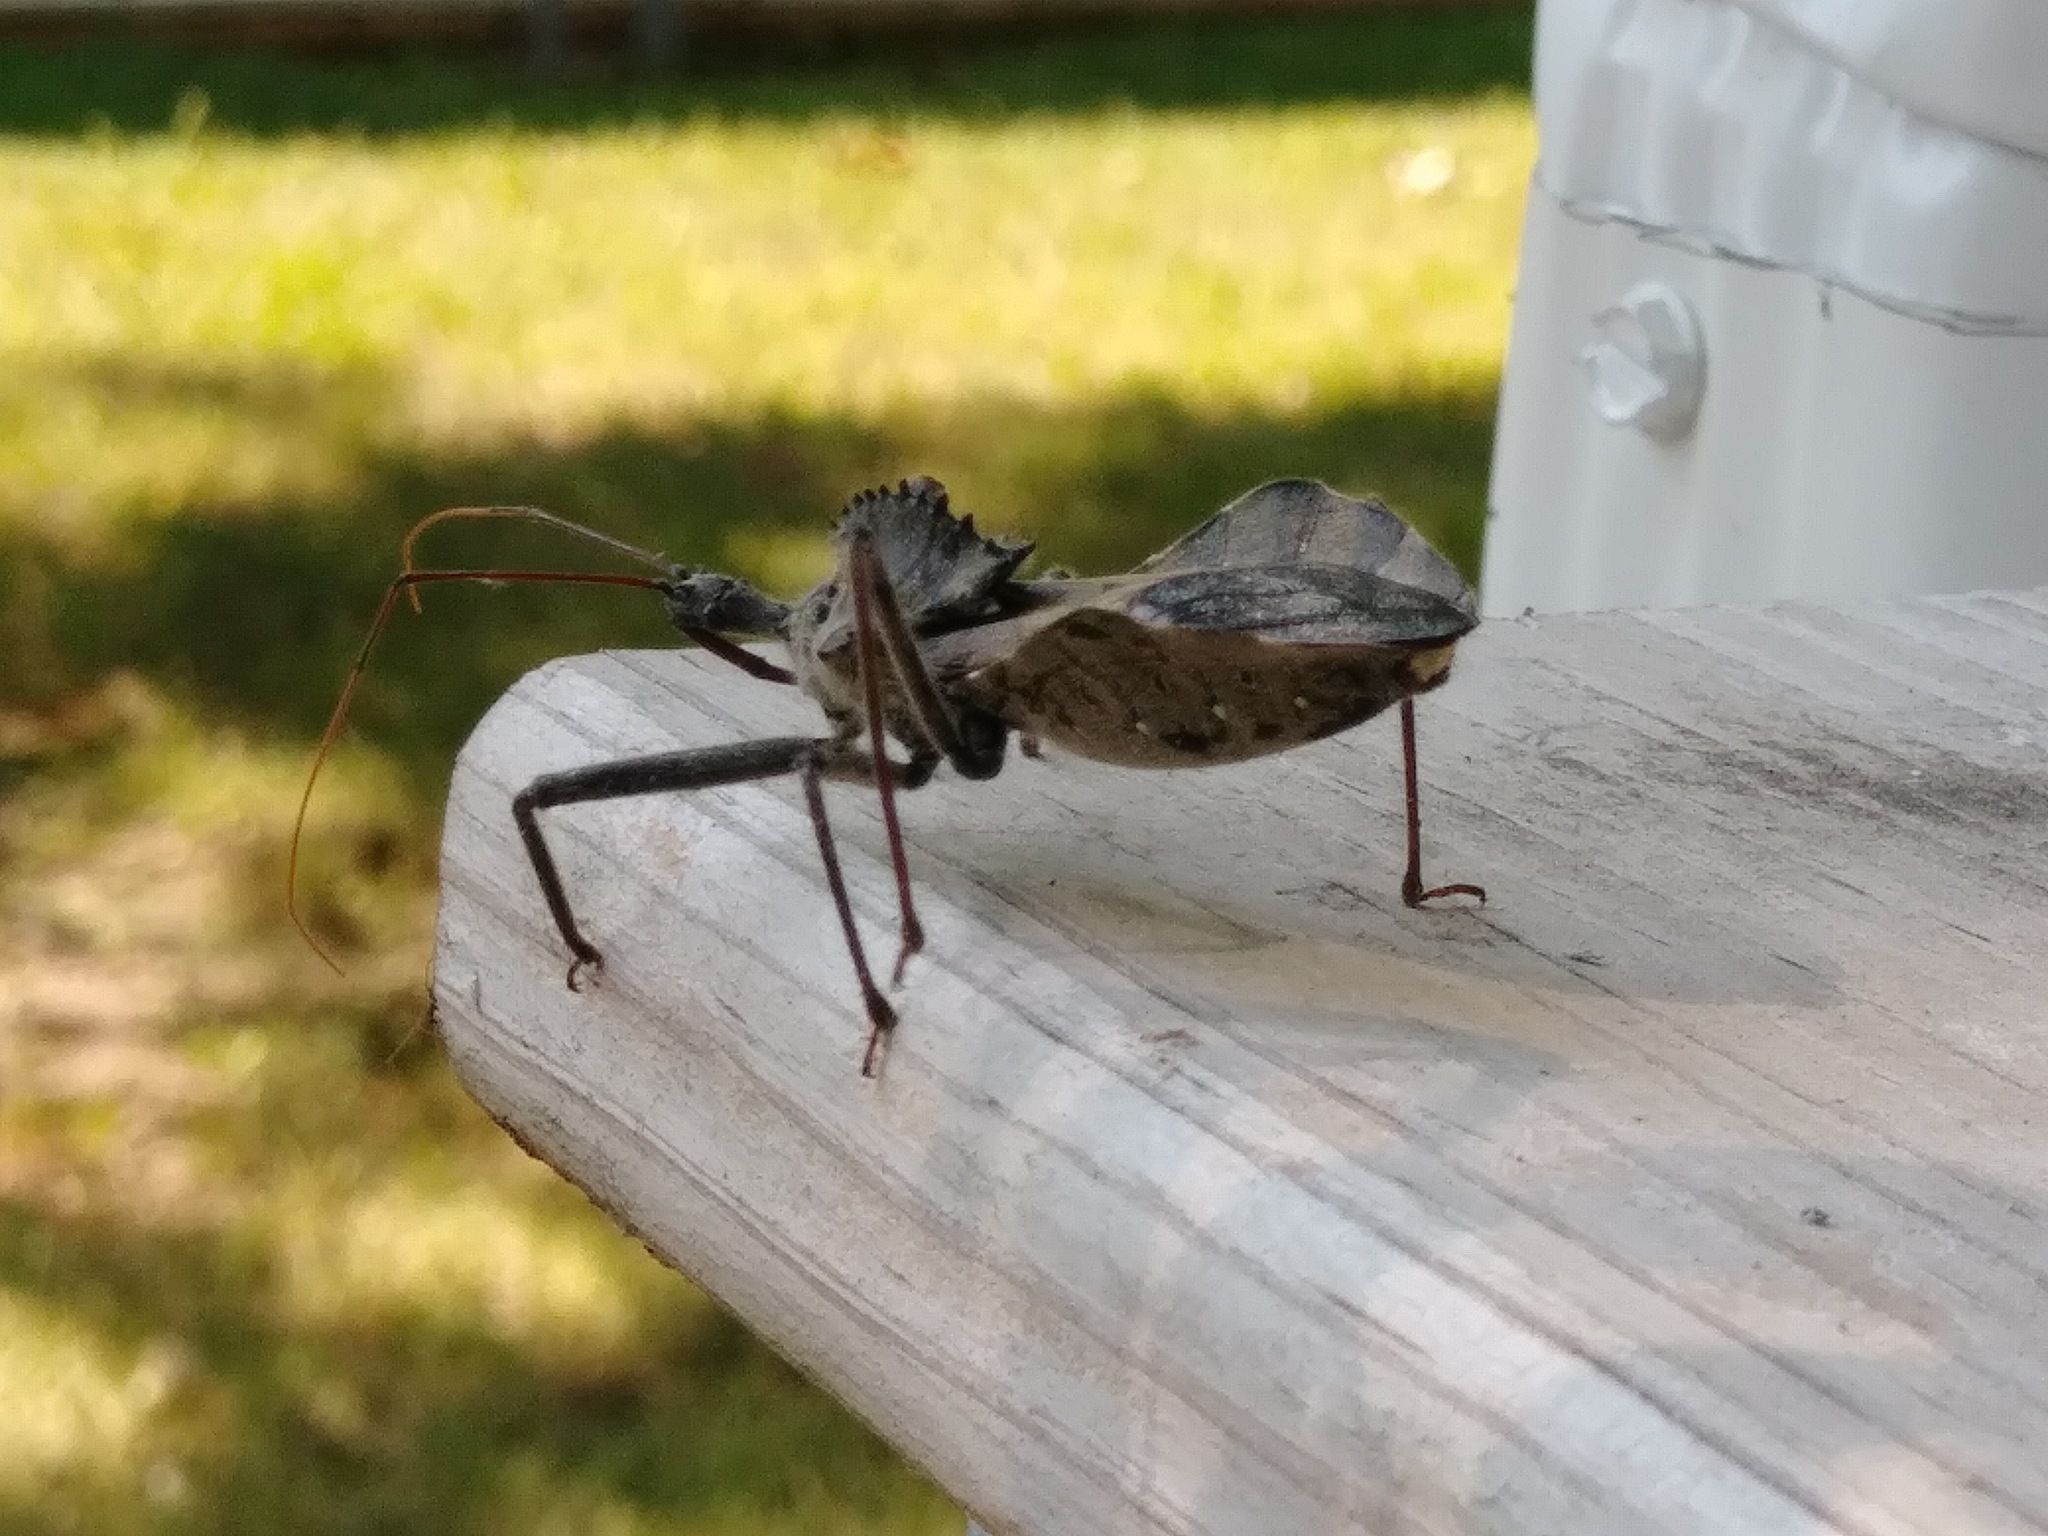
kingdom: Animalia
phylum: Arthropoda
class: Insecta
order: Hemiptera
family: Reduviidae
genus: Arilus
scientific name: Arilus cristatus
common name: North american wheel bug
